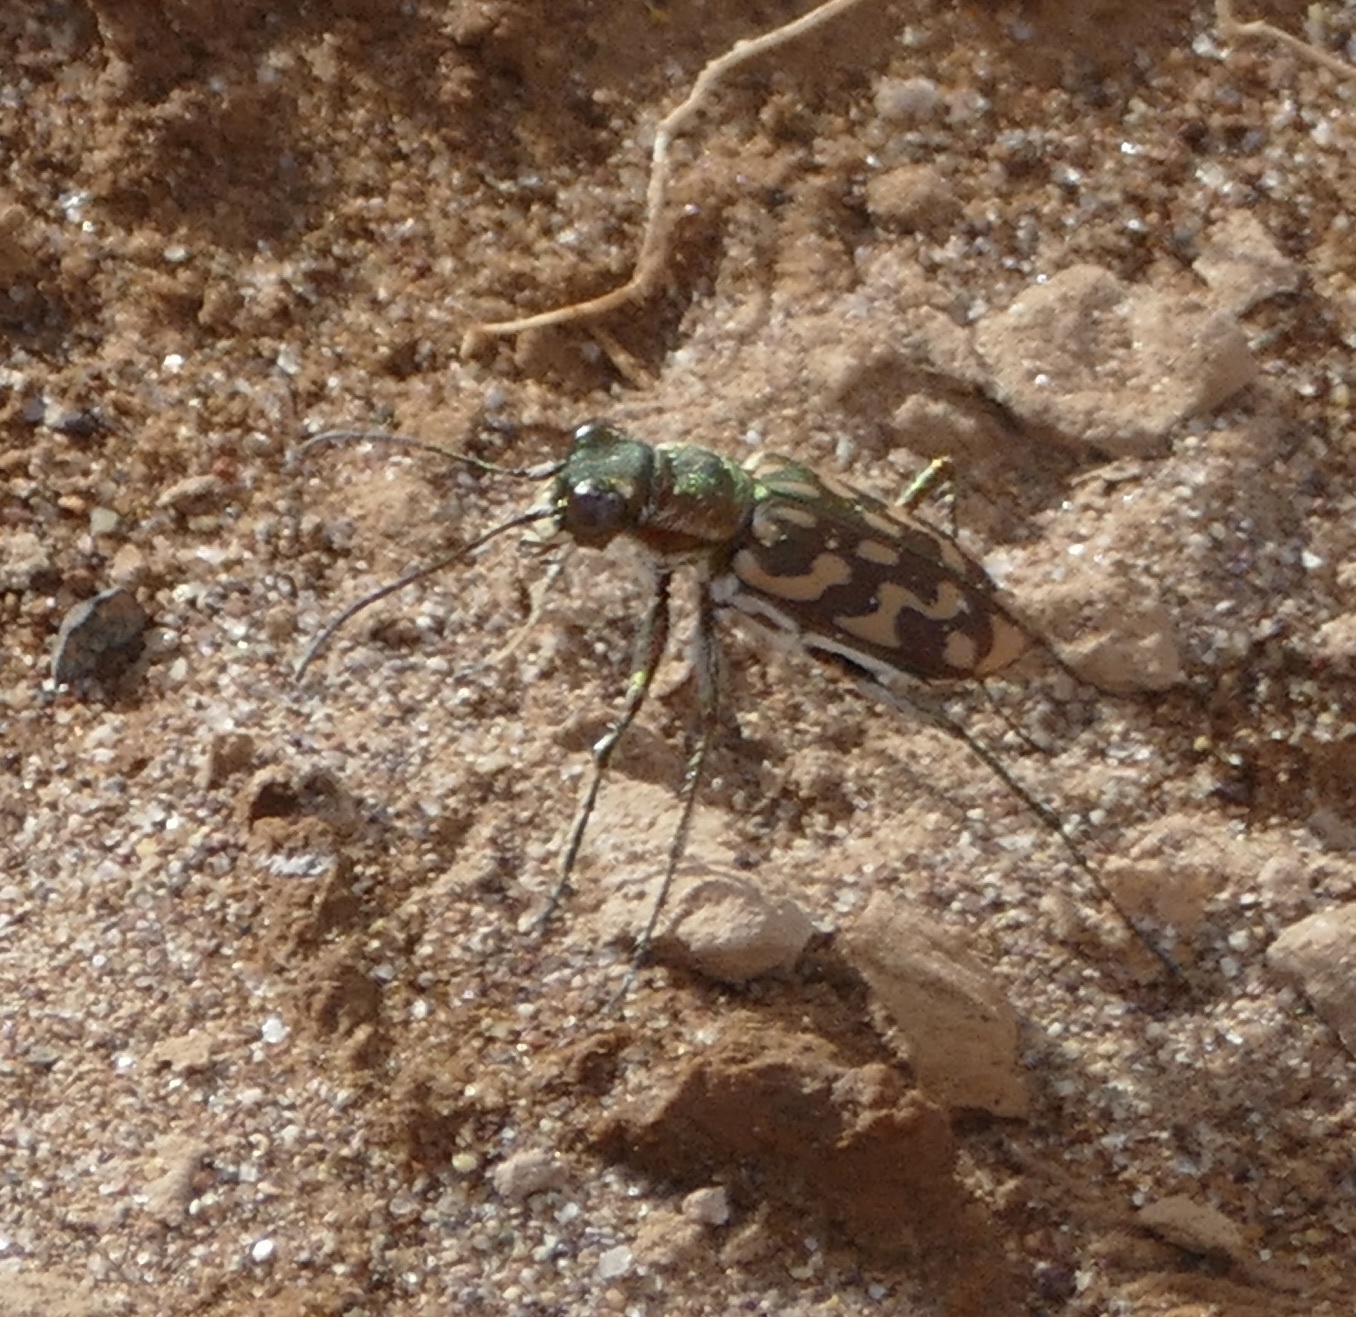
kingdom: Animalia
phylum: Arthropoda
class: Insecta
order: Coleoptera
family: Carabidae
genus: Lophyra
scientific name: Lophyra flexuosa
